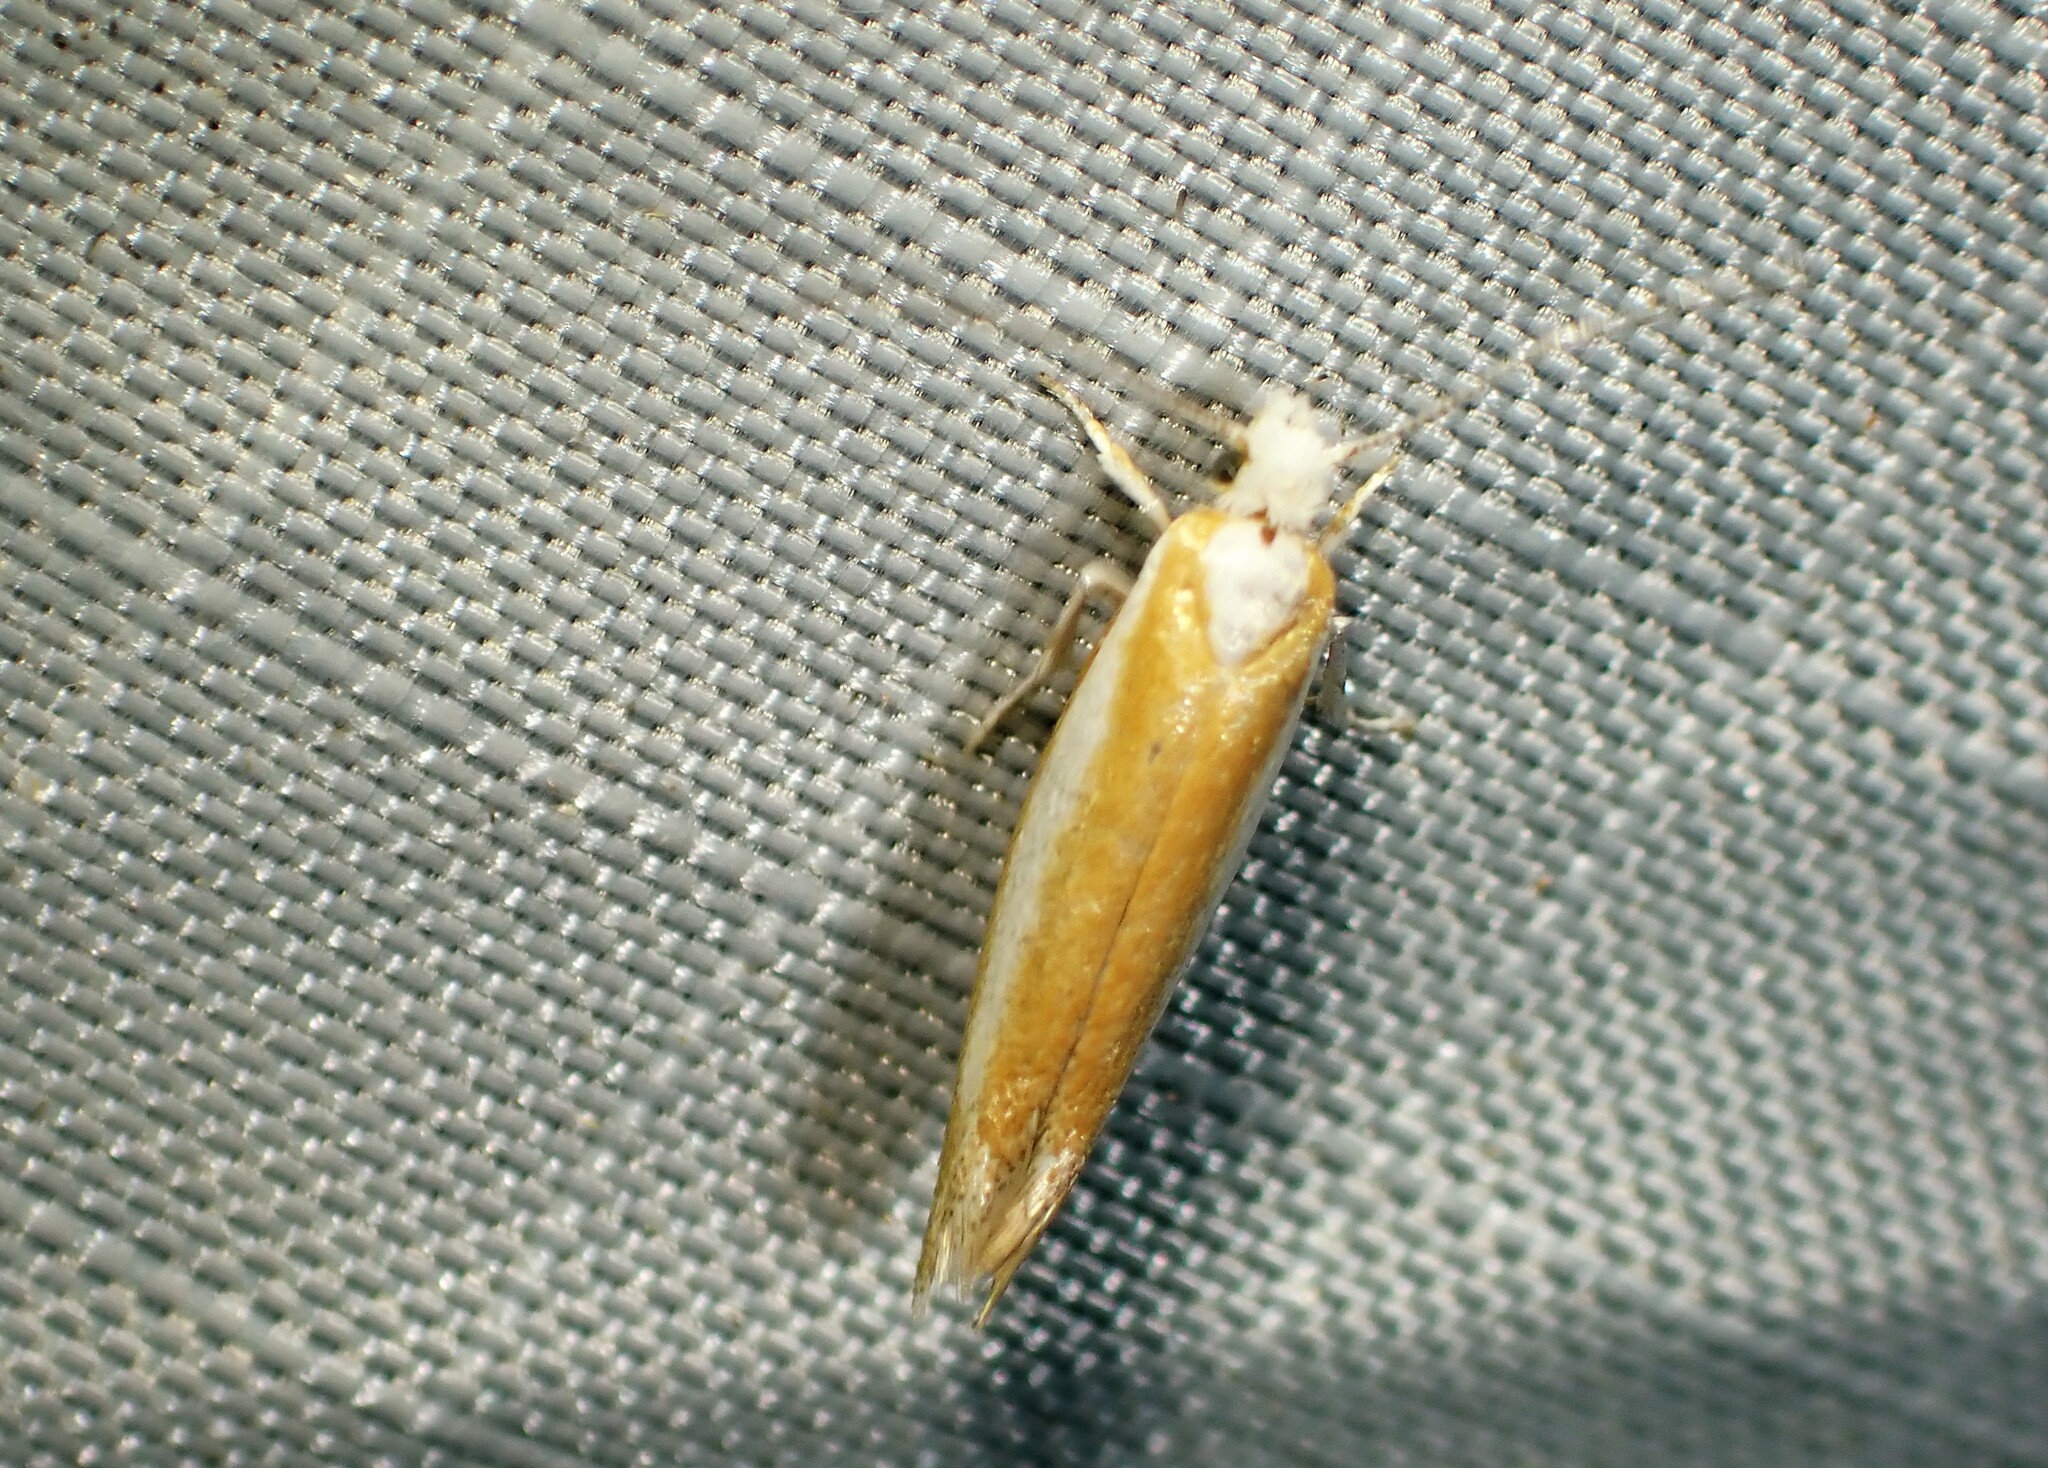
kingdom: Animalia
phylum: Arthropoda
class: Insecta
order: Lepidoptera
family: Yponomeutidae
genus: Zelleria
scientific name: Zelleria haimbachi
